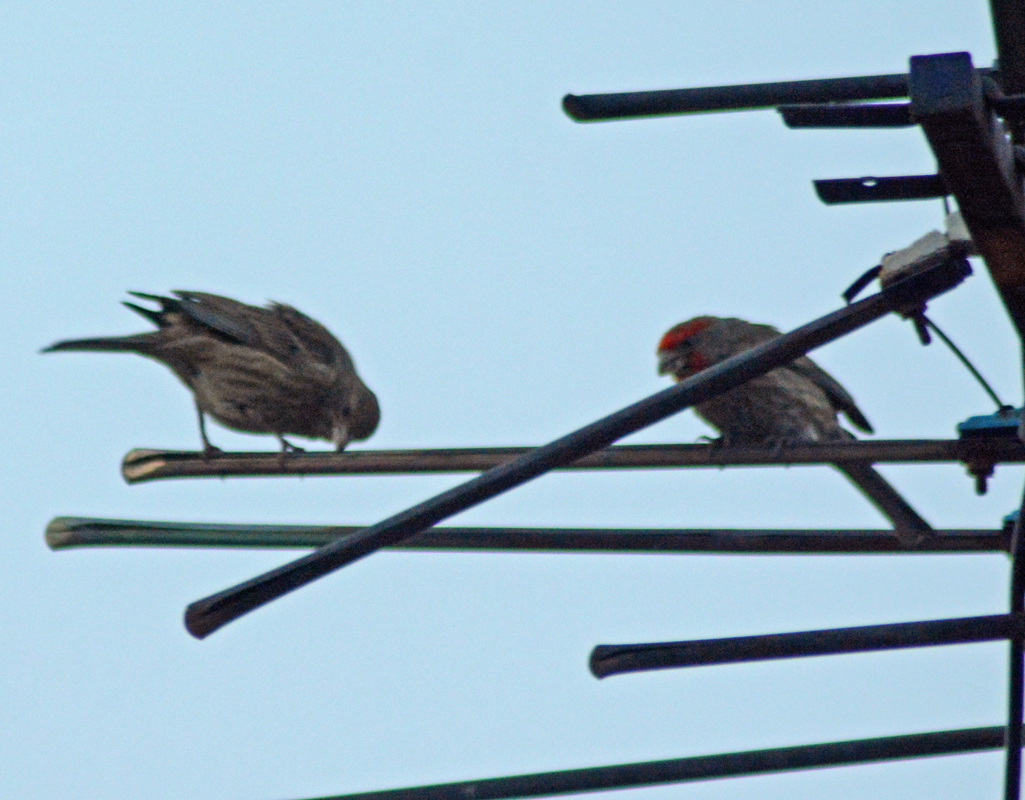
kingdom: Animalia
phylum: Chordata
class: Aves
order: Passeriformes
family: Fringillidae
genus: Haemorhous
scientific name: Haemorhous mexicanus
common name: House finch
